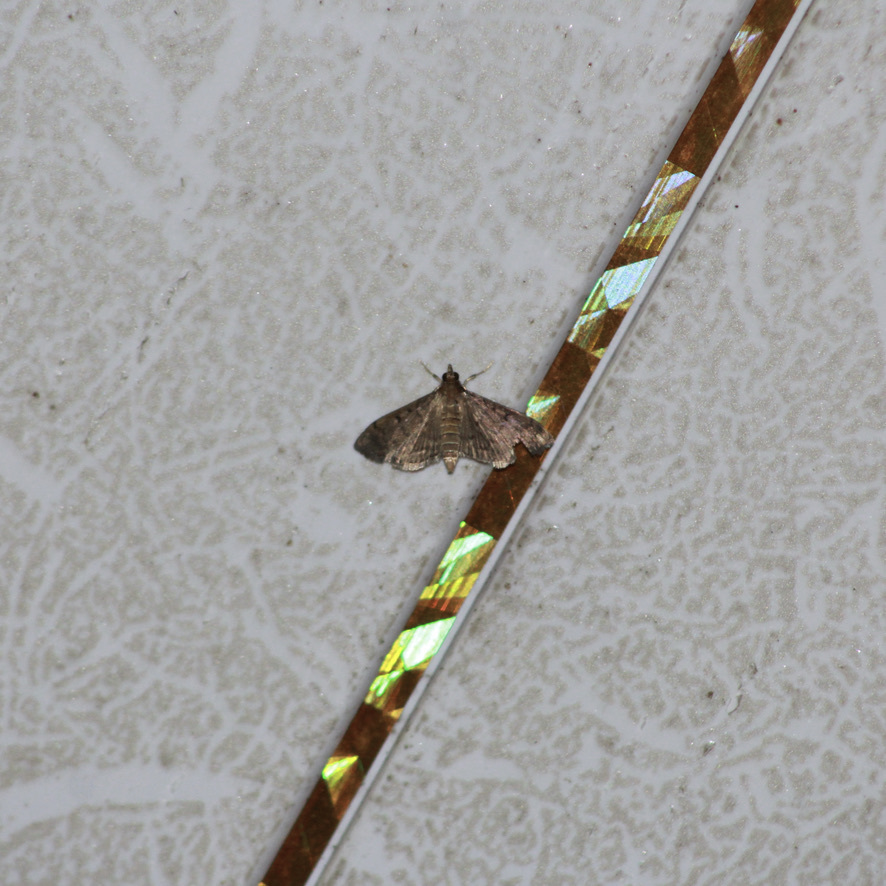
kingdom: Animalia
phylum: Arthropoda
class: Insecta
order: Lepidoptera
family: Crambidae
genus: Herpetogramma
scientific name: Herpetogramma phaeopteralis
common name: Dusky herpetogramma moth
